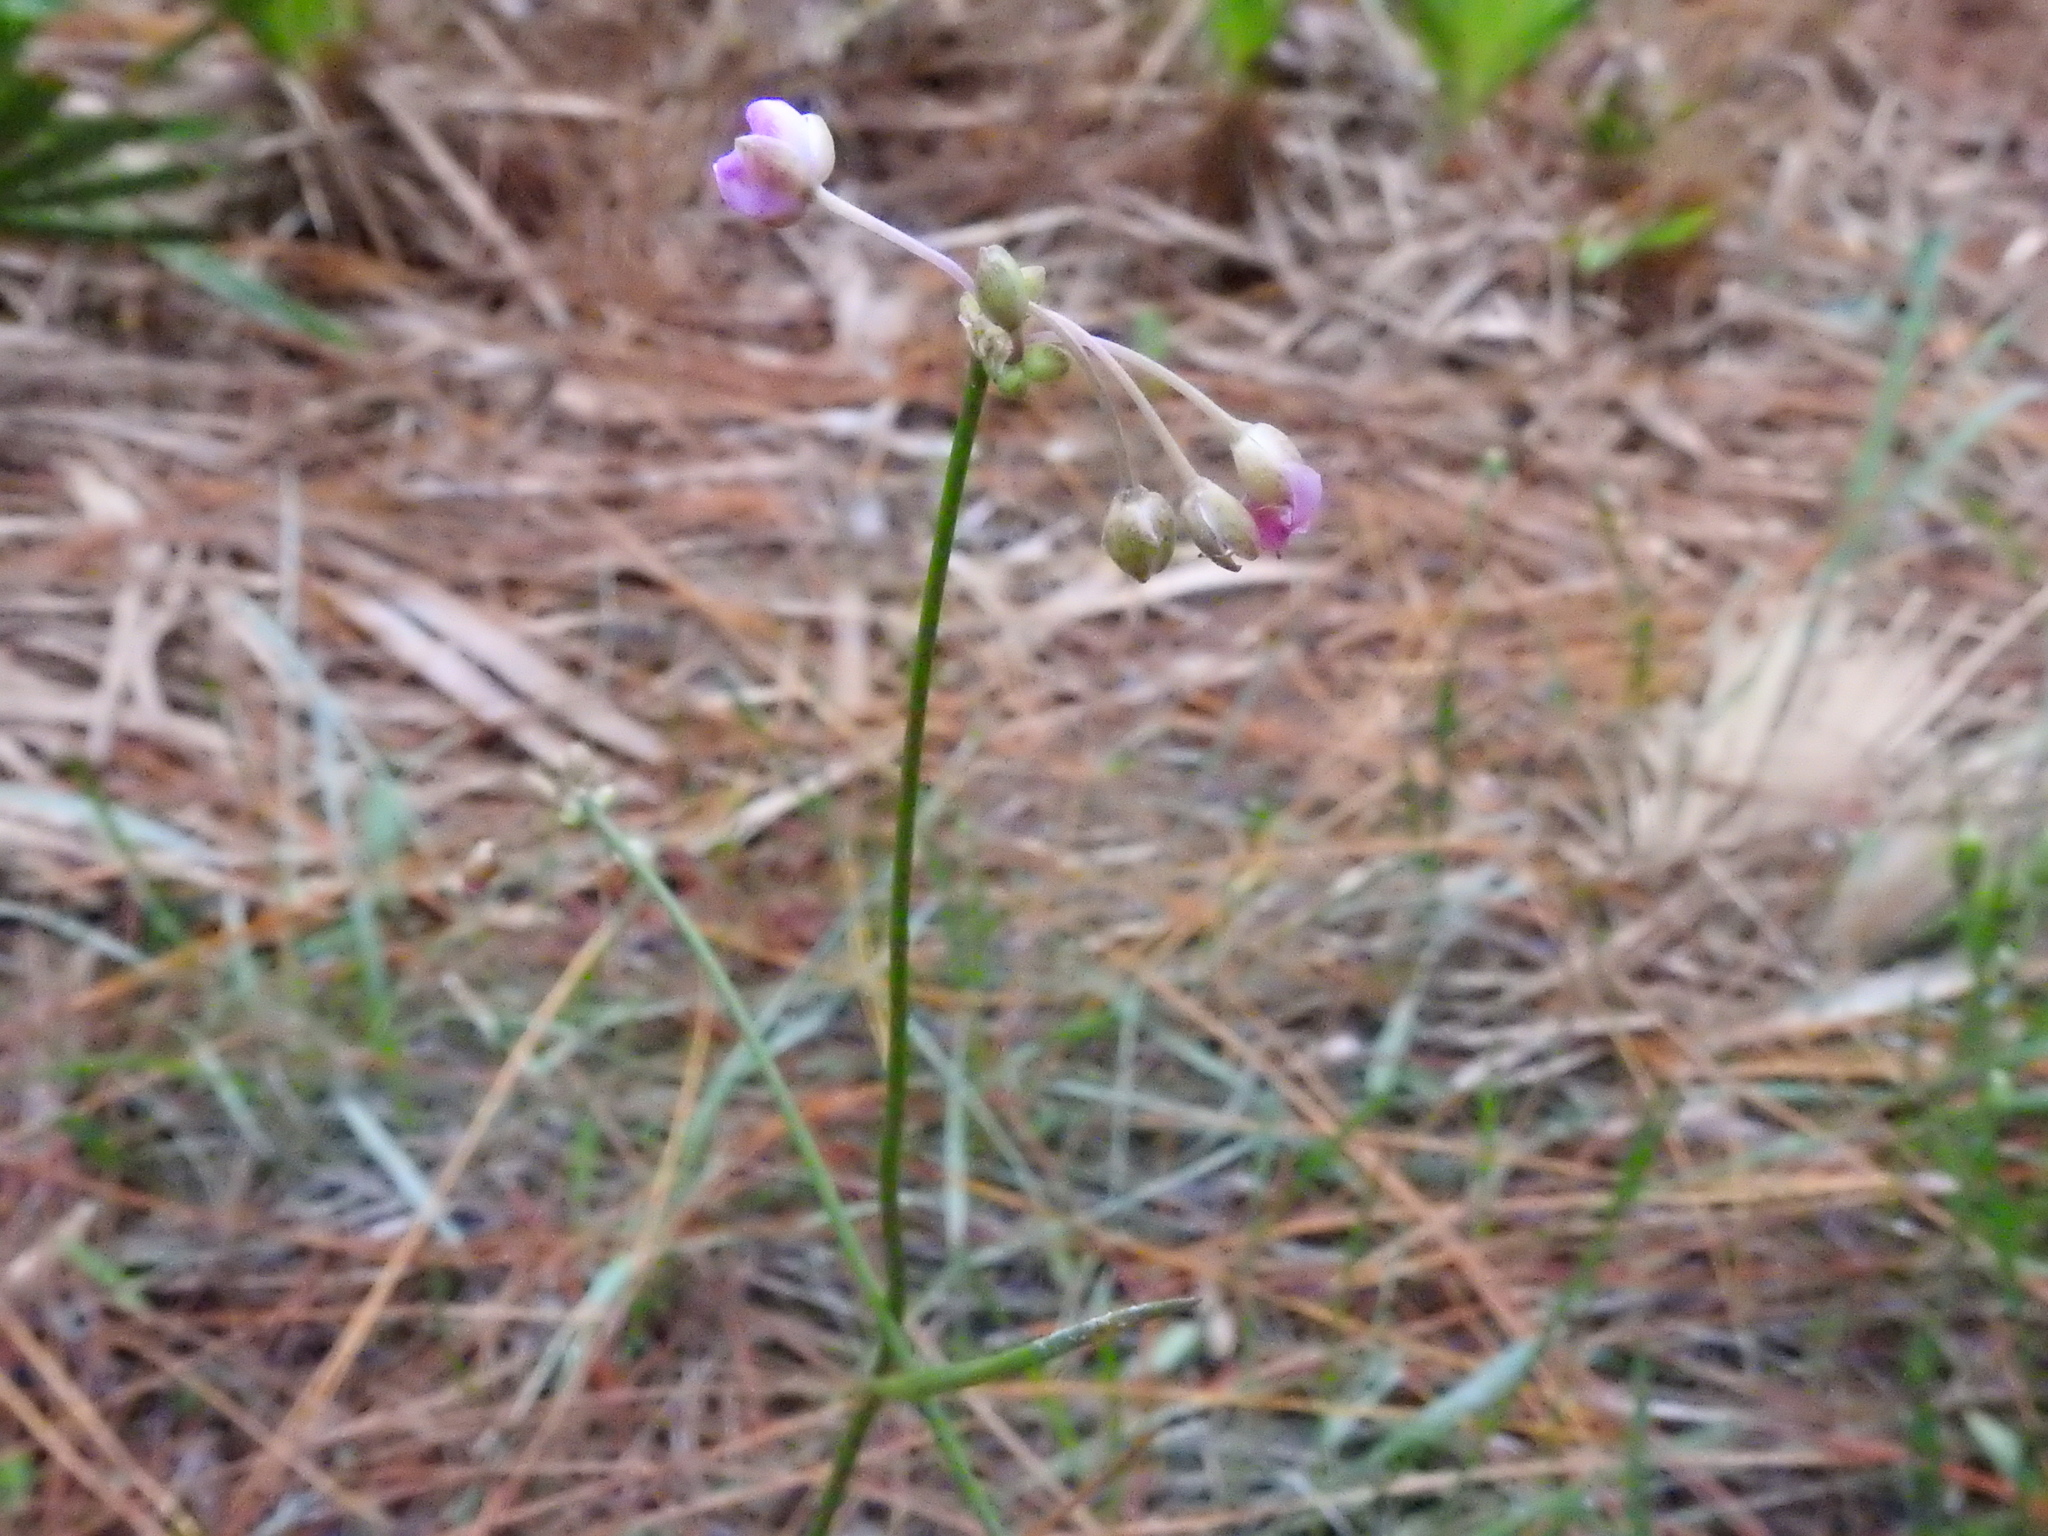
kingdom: Plantae
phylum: Tracheophyta
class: Liliopsida
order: Commelinales
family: Commelinaceae
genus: Callisia
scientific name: Callisia ornata
